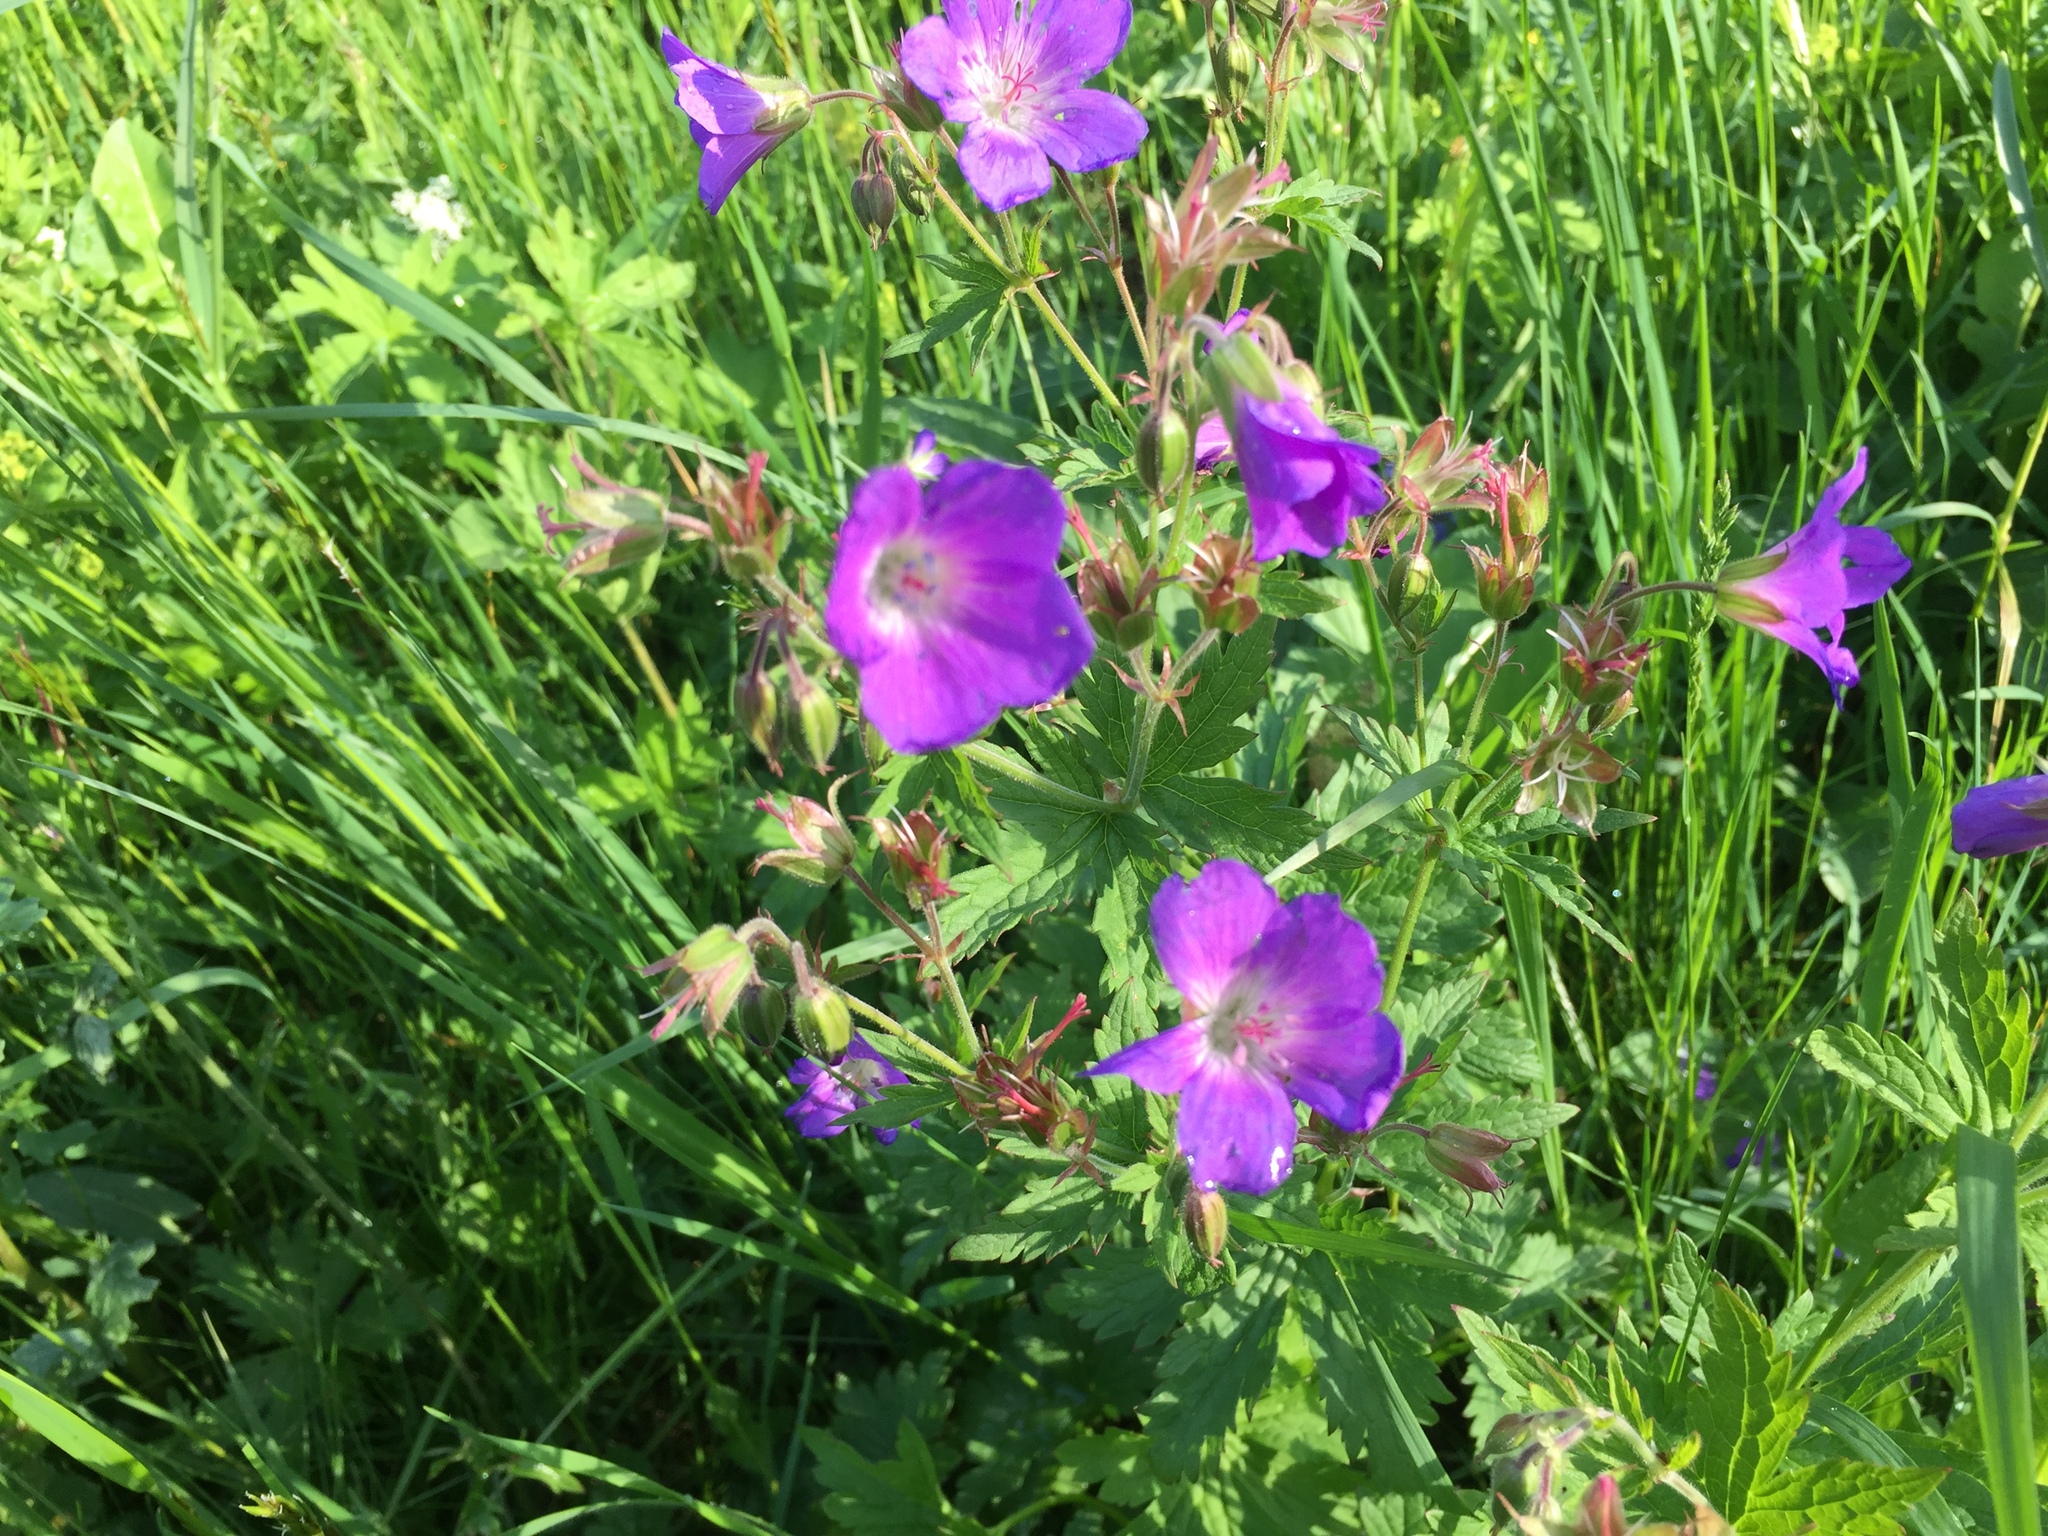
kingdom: Plantae
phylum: Tracheophyta
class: Magnoliopsida
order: Geraniales
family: Geraniaceae
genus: Geranium
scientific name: Geranium sylvaticum
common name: Wood crane's-bill
